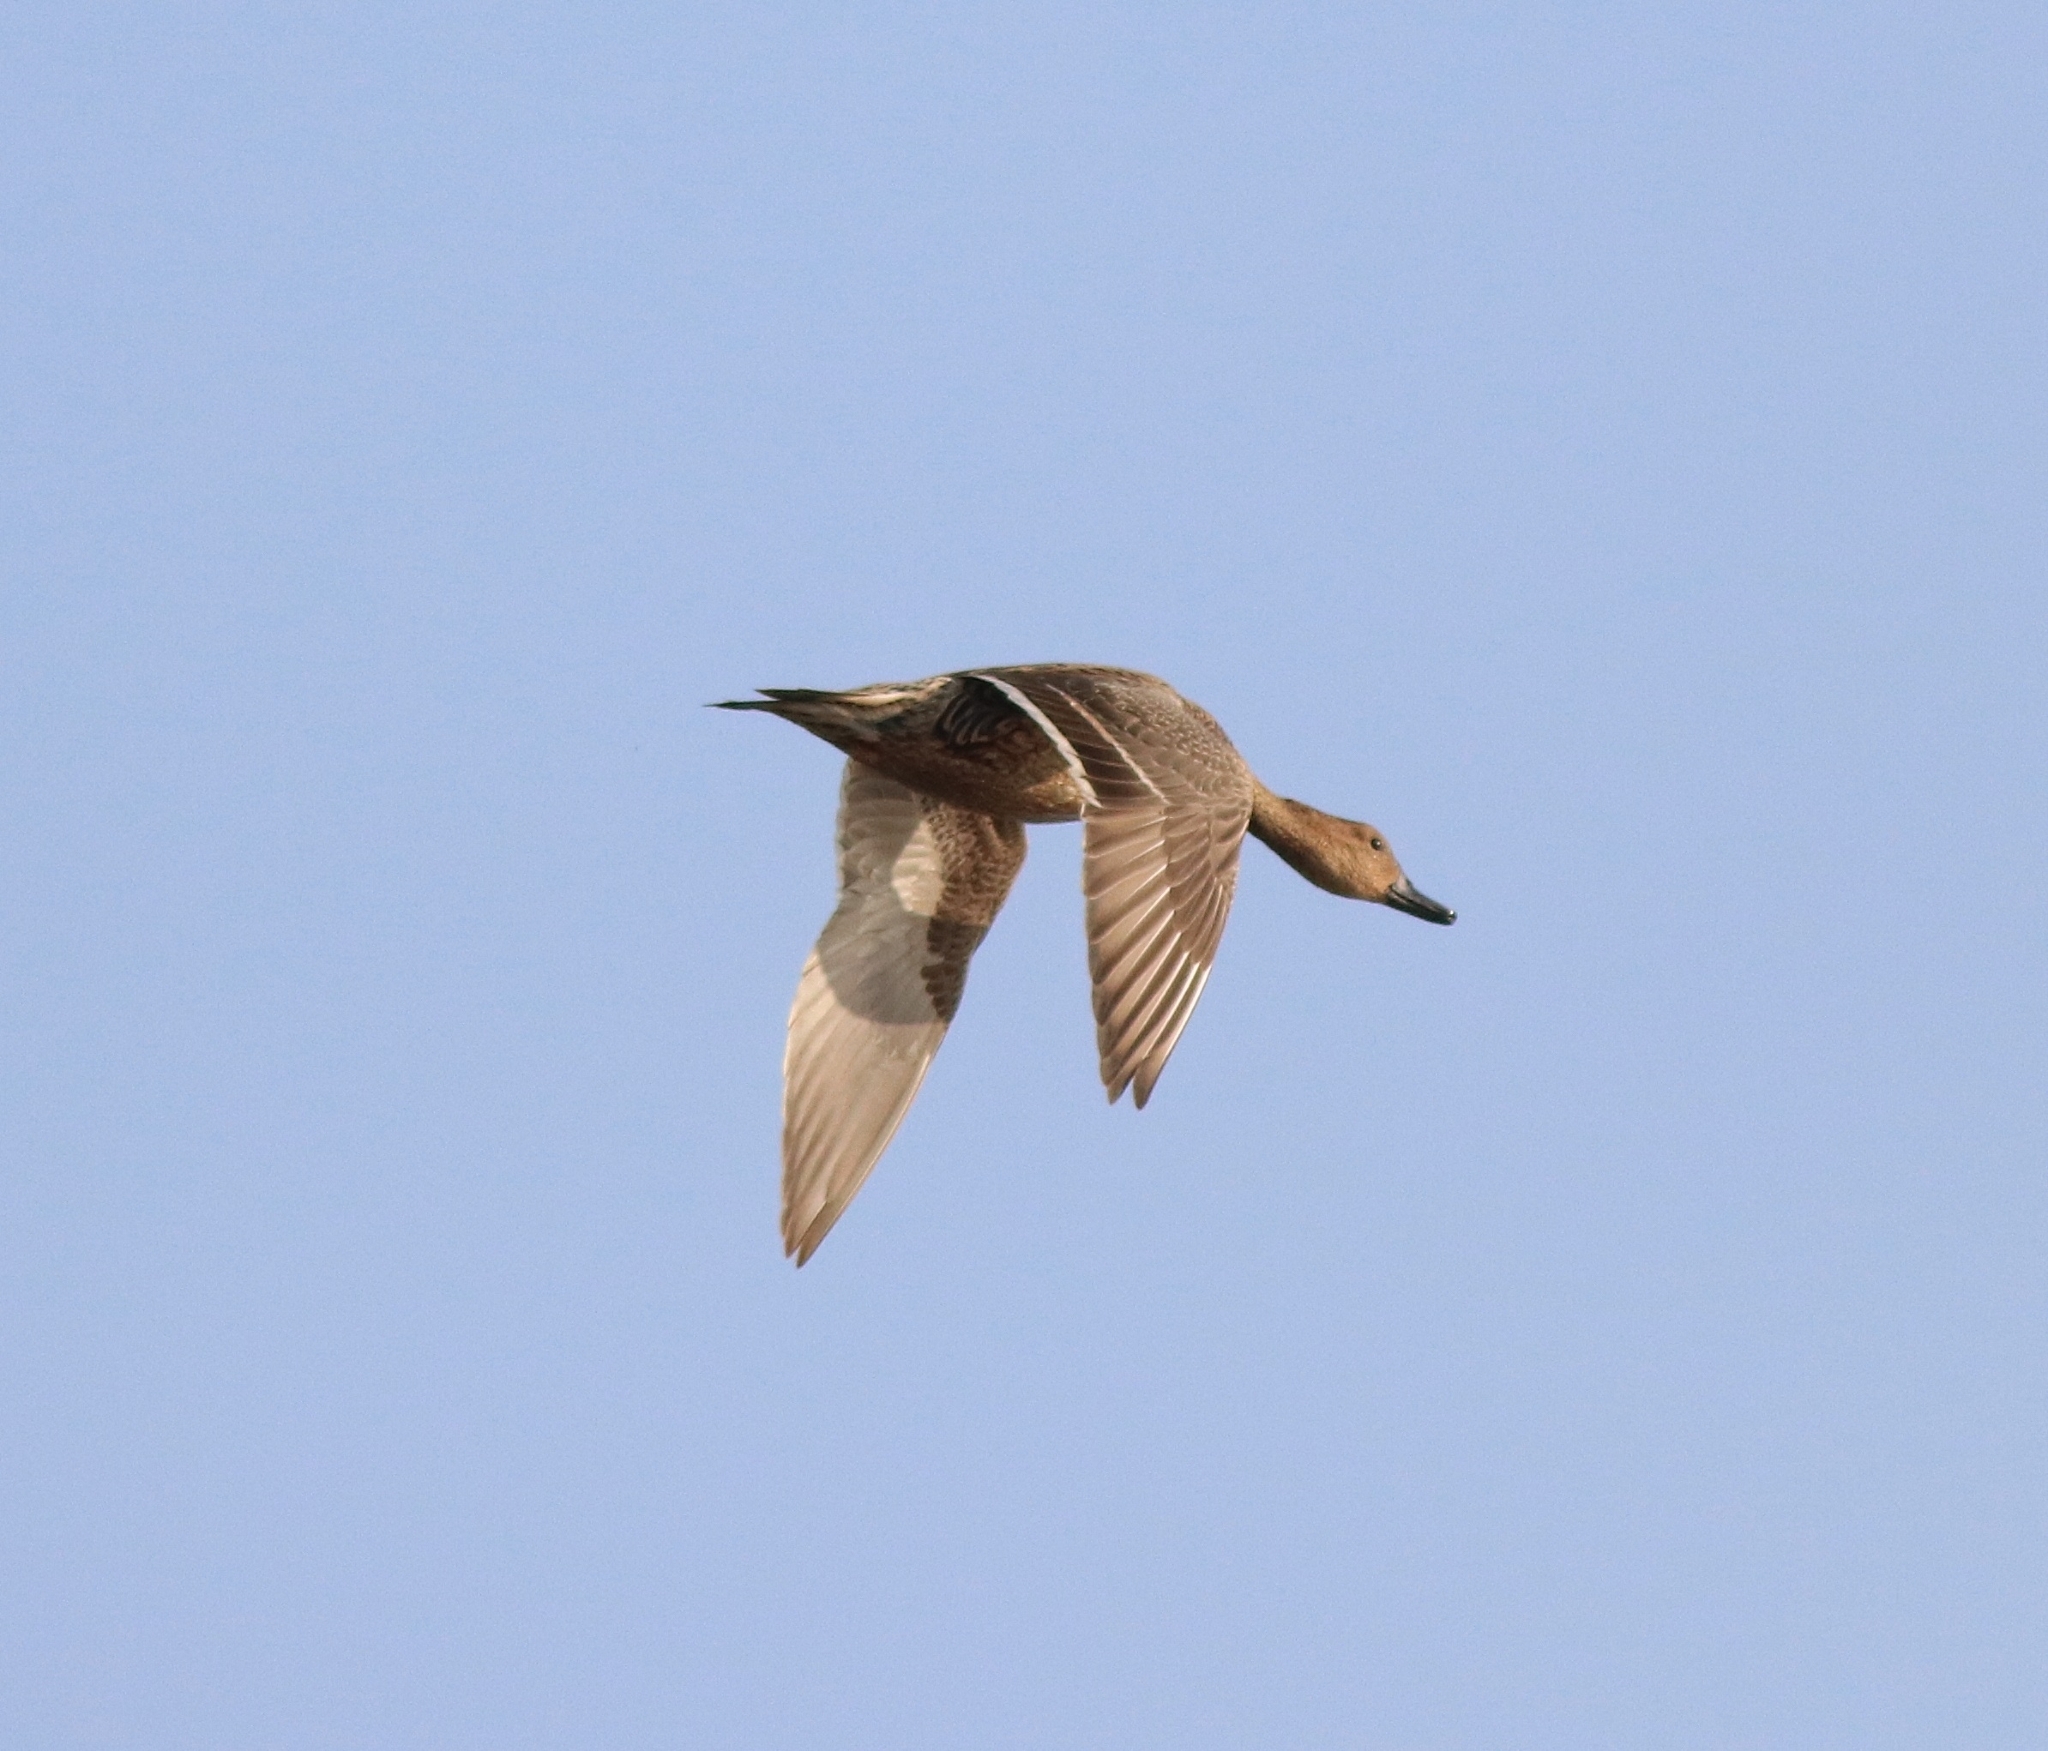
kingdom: Animalia
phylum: Chordata
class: Aves
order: Anseriformes
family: Anatidae
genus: Anas
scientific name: Anas acuta
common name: Northern pintail
